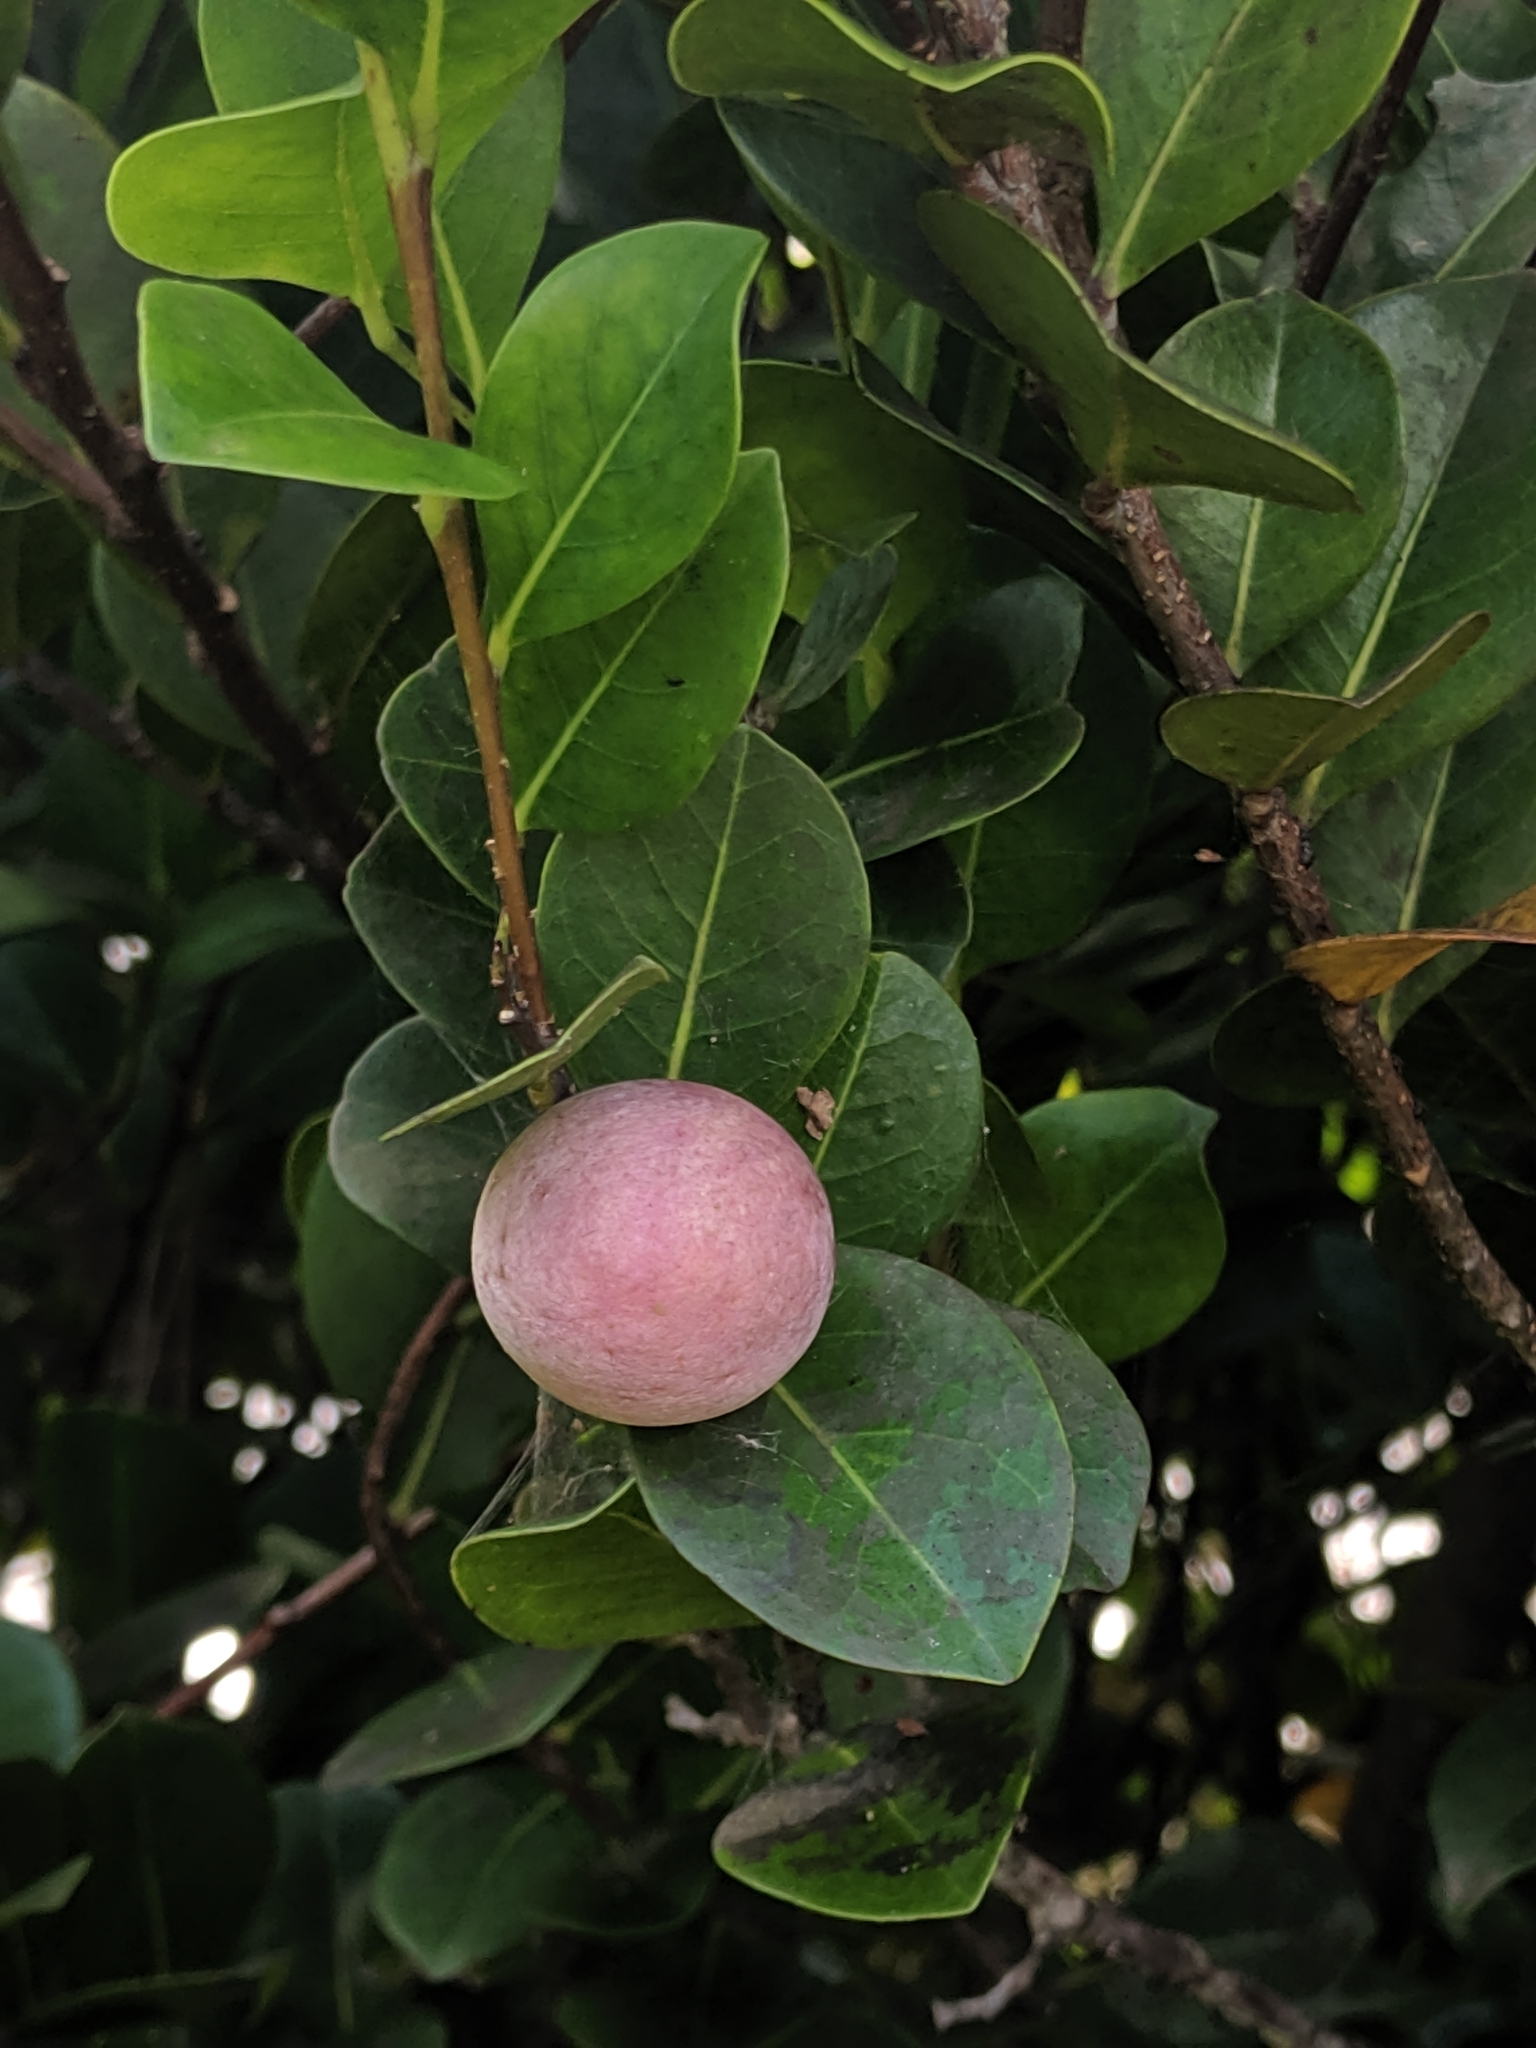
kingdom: Plantae
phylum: Tracheophyta
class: Magnoliopsida
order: Malpighiales
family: Chrysobalanaceae
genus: Chrysobalanus
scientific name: Chrysobalanus icaco
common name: Coco plum
